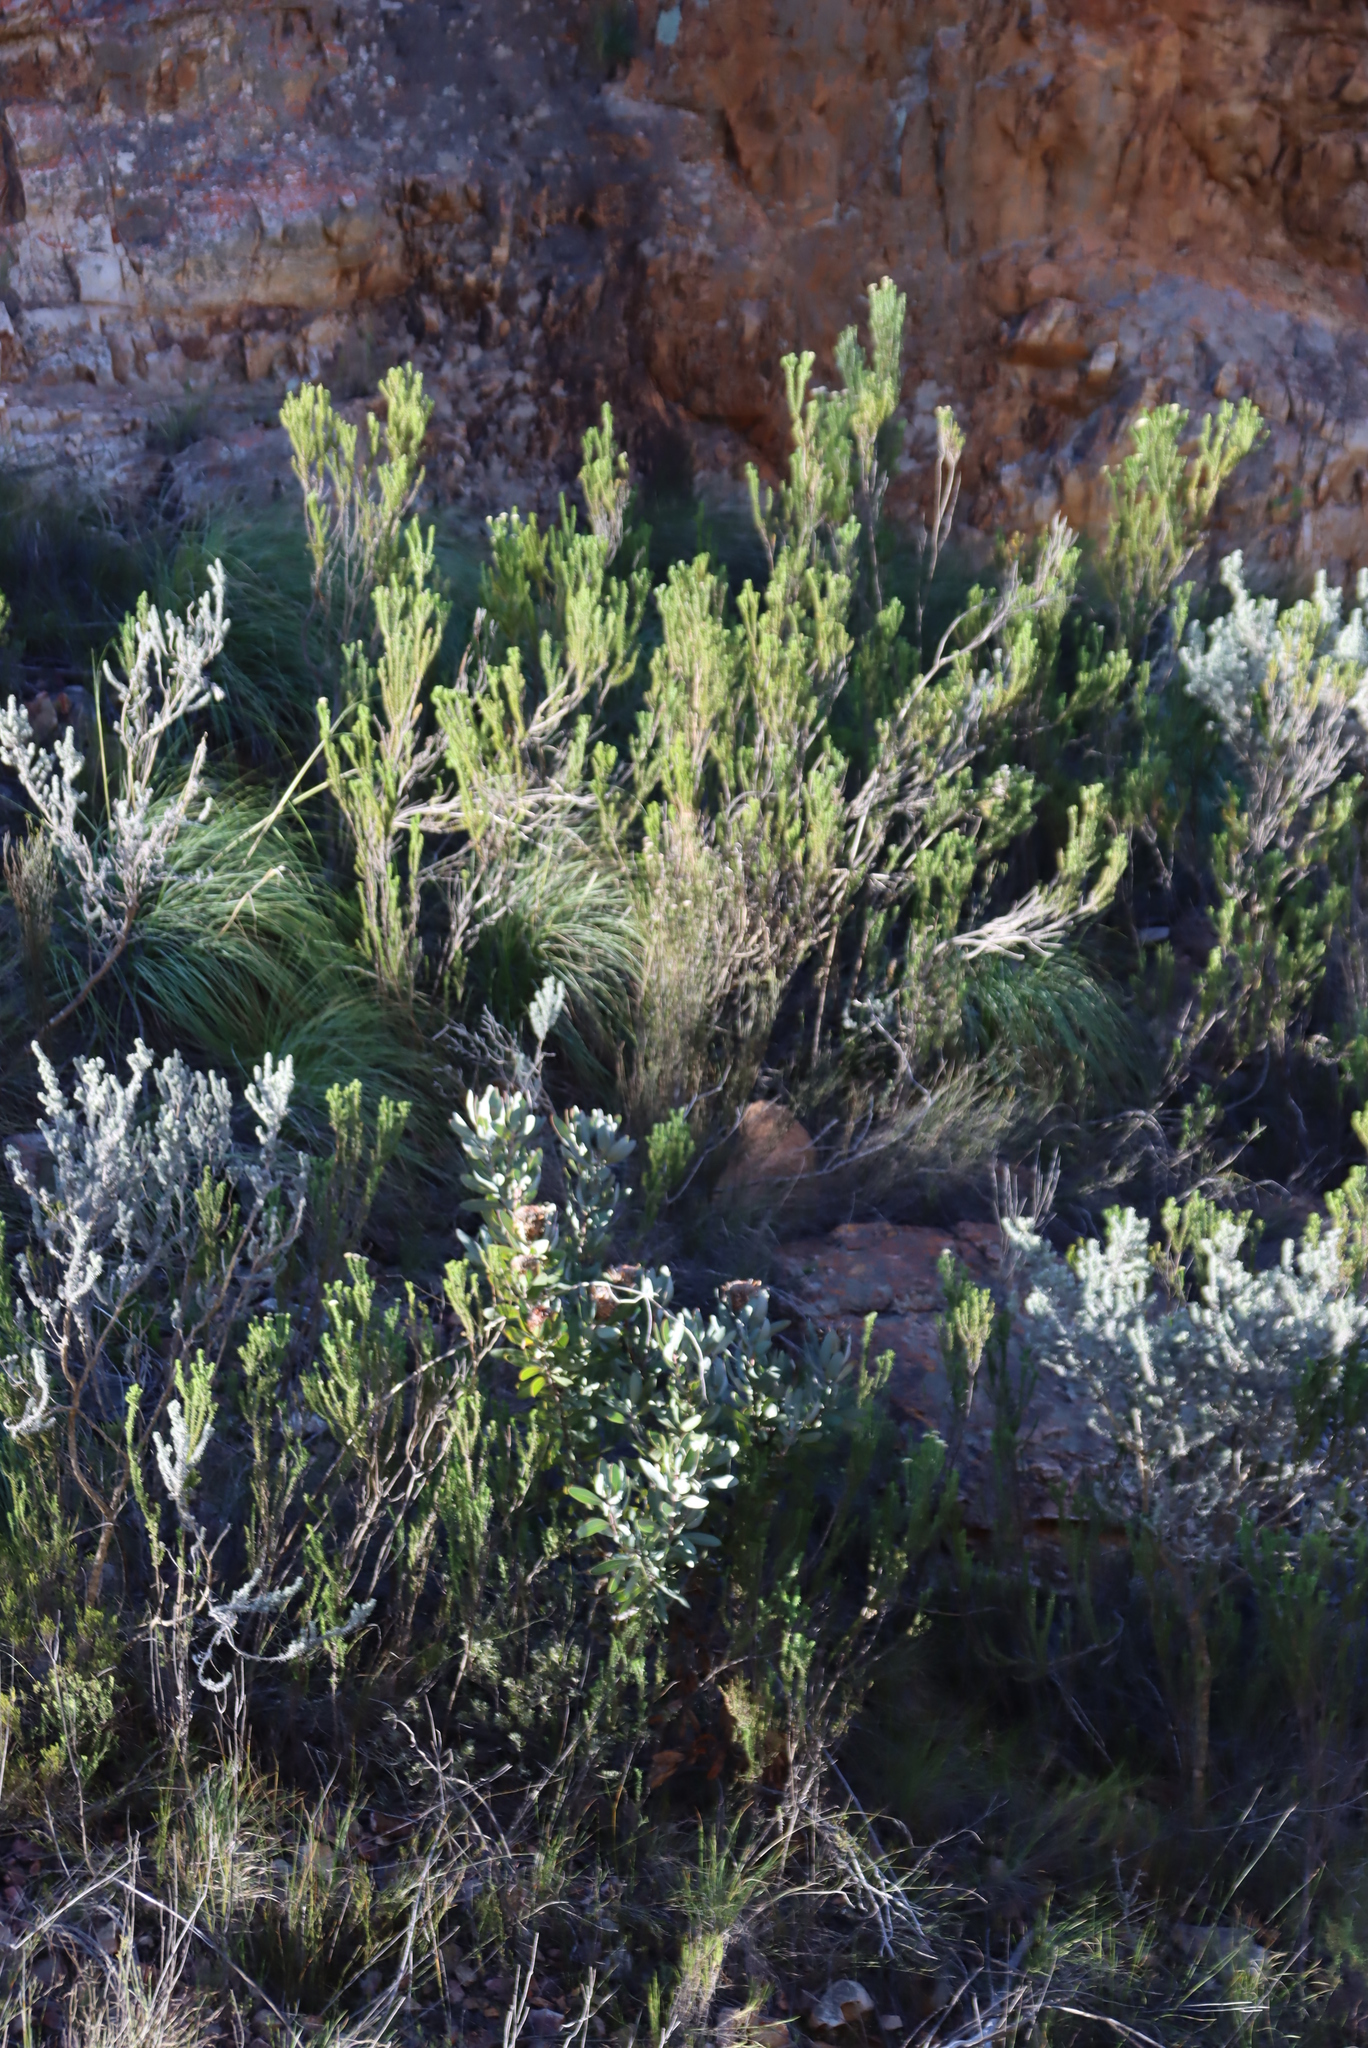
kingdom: Plantae
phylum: Tracheophyta
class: Magnoliopsida
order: Proteales
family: Proteaceae
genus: Protea
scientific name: Protea lorifolia
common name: Strap-leaved protea
